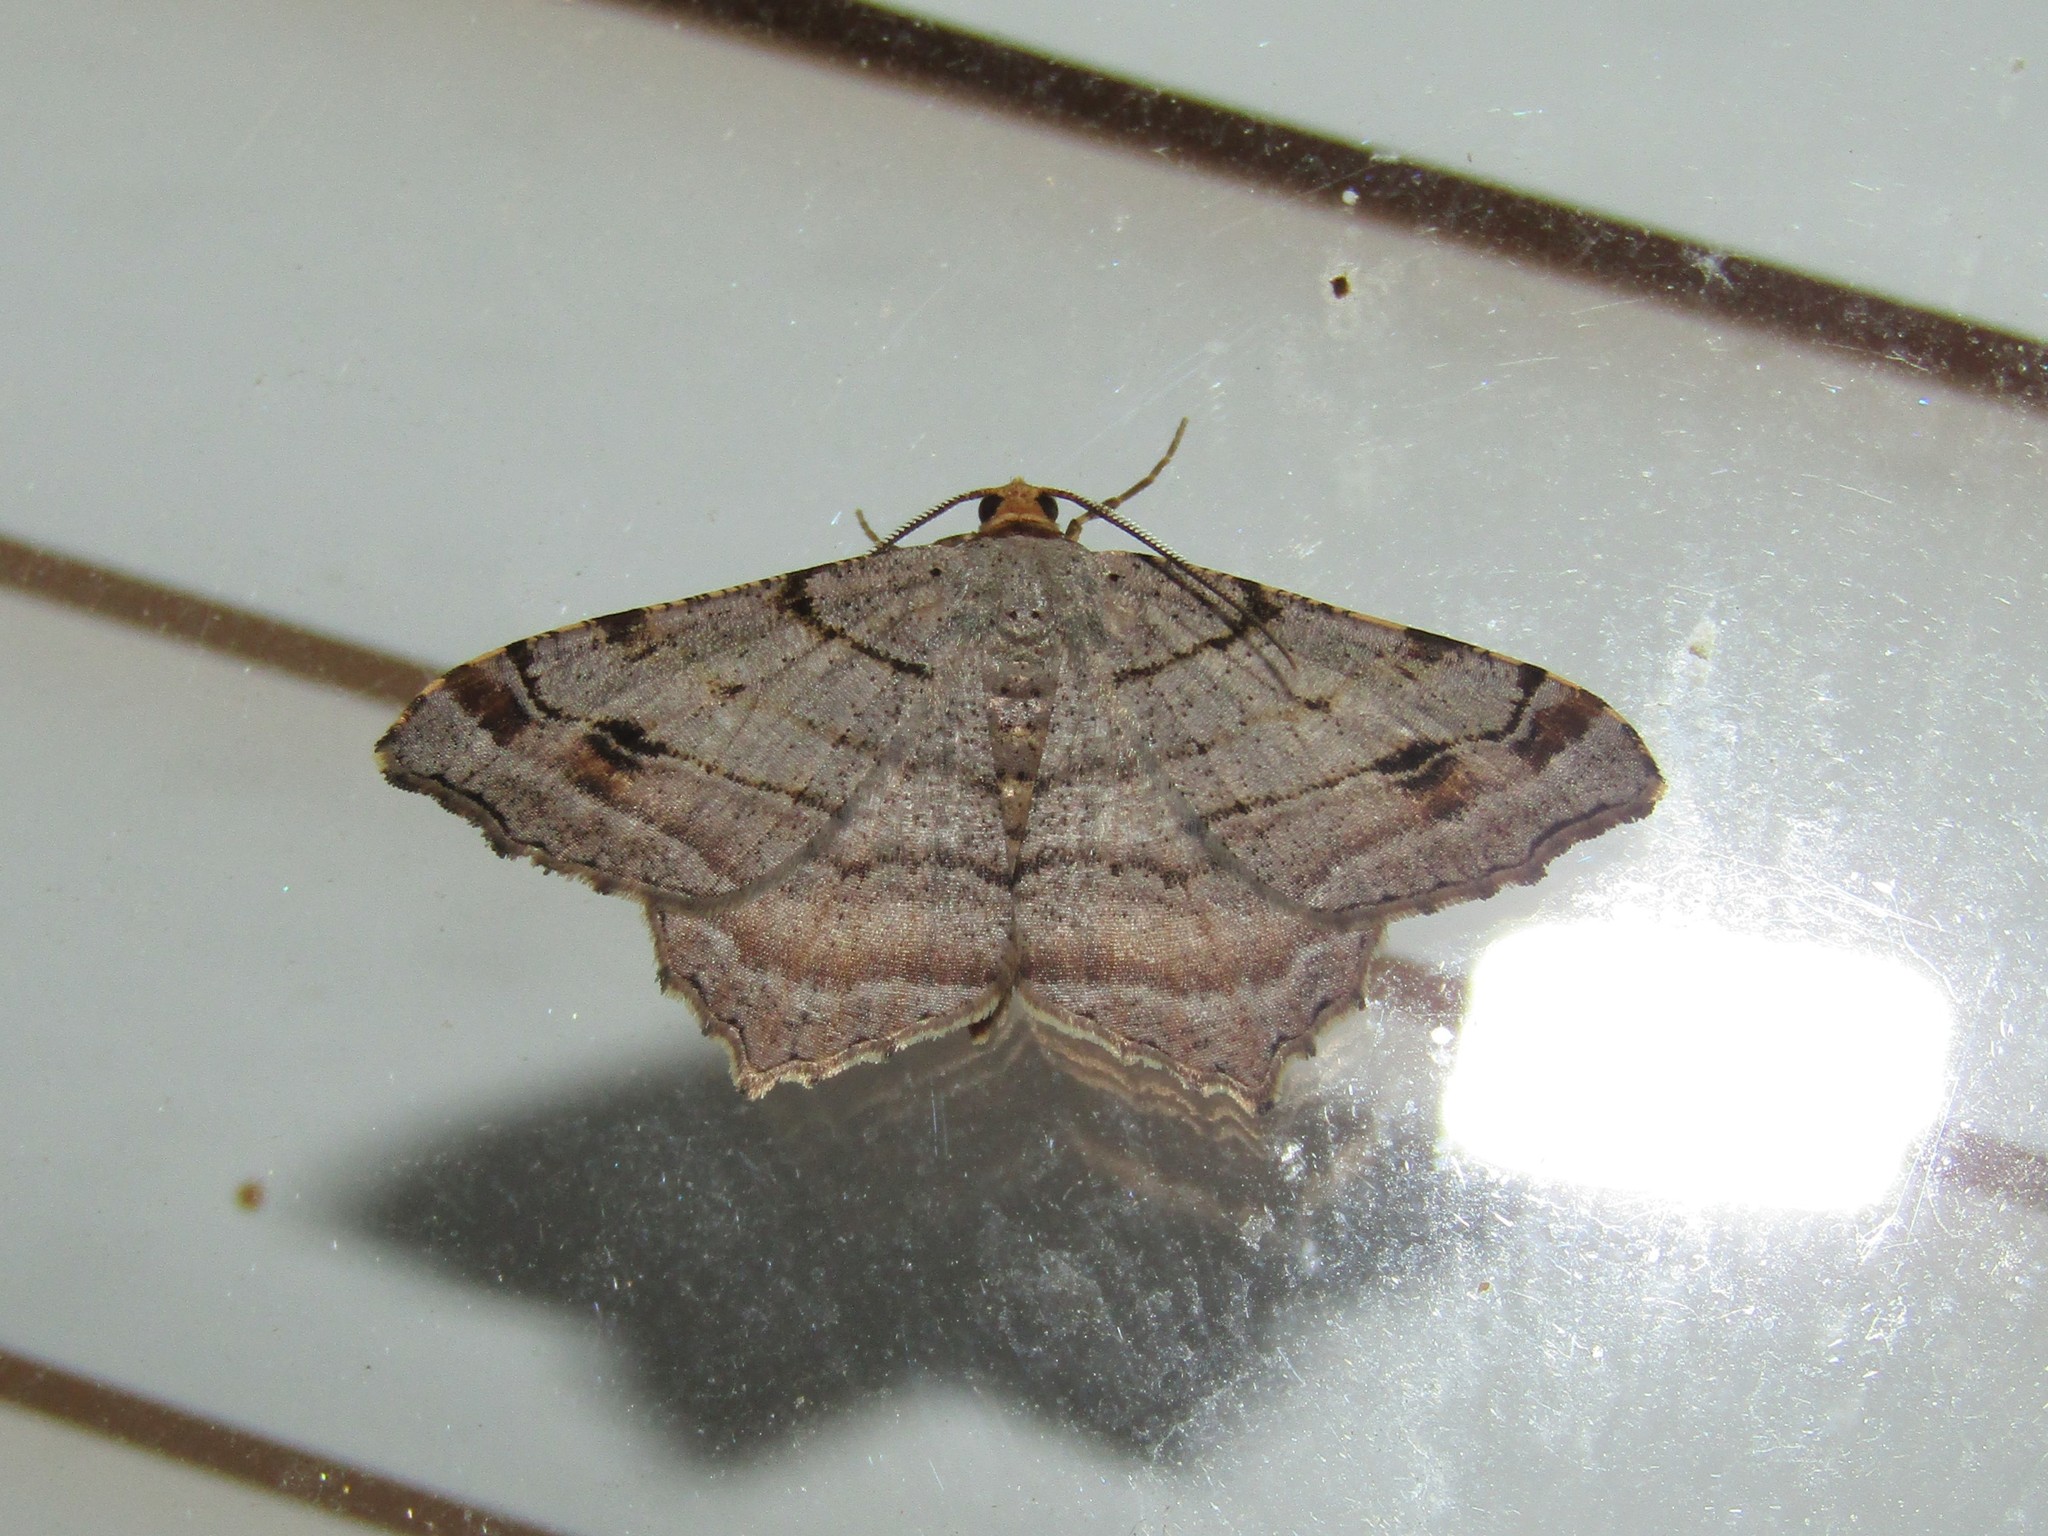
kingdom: Animalia
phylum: Arthropoda
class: Insecta
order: Lepidoptera
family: Geometridae
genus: Macaria
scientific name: Macaria multilineata
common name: Many-lined angle
